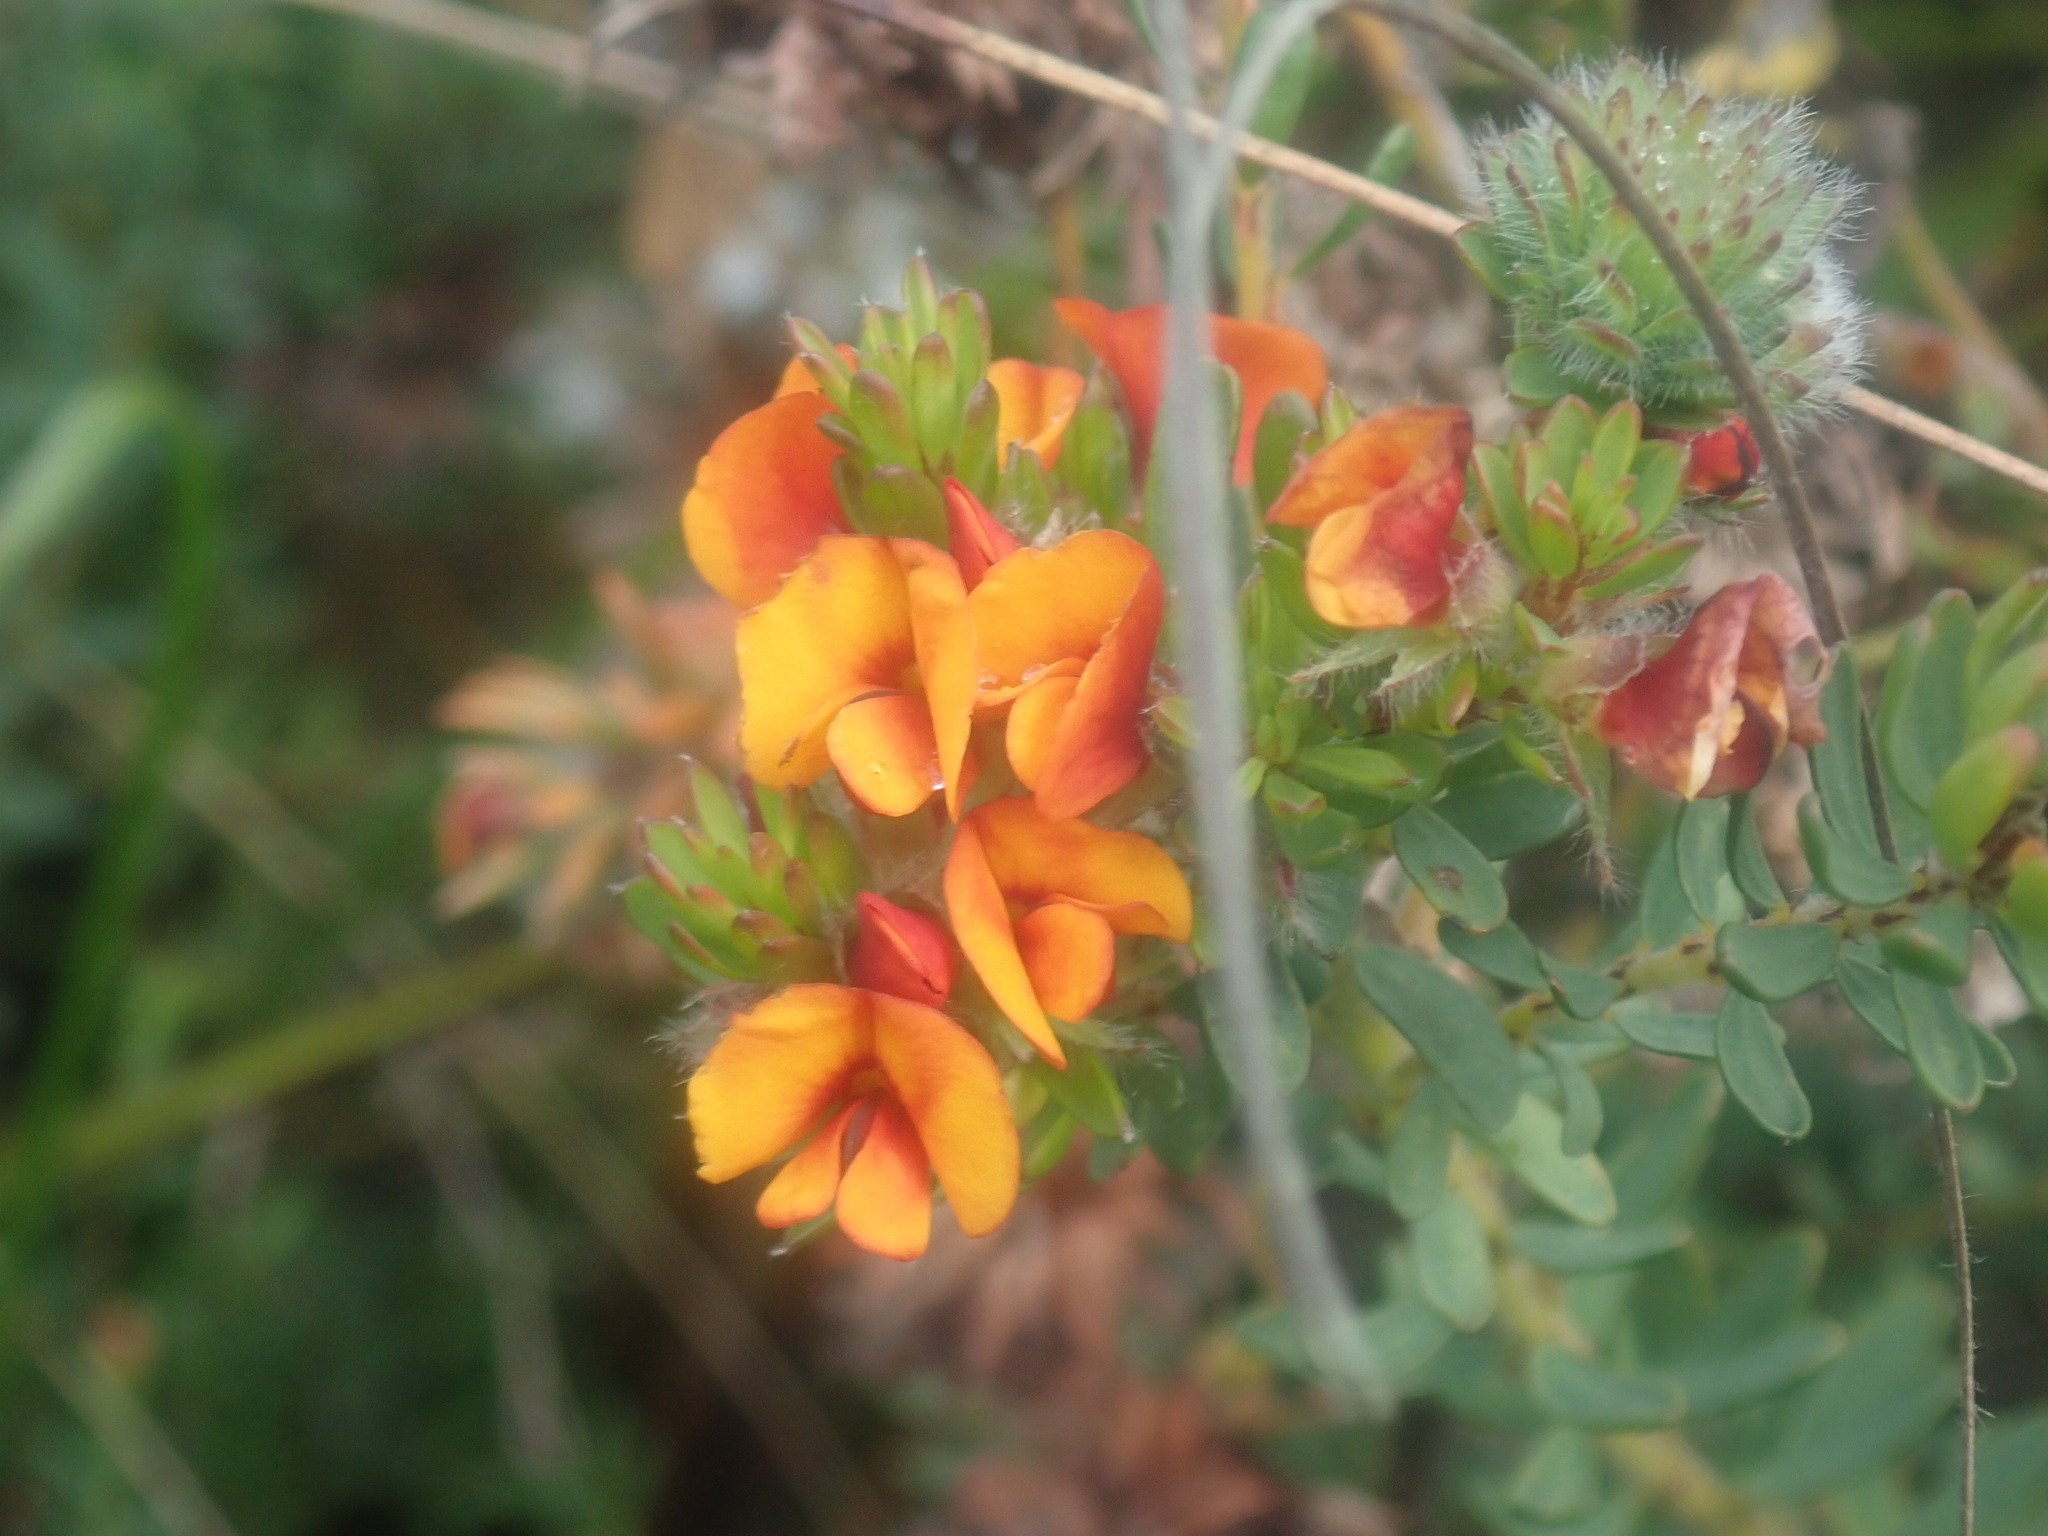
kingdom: Plantae
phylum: Tracheophyta
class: Magnoliopsida
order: Fabales
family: Fabaceae
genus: Pultenaea
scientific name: Pultenaea humilis
